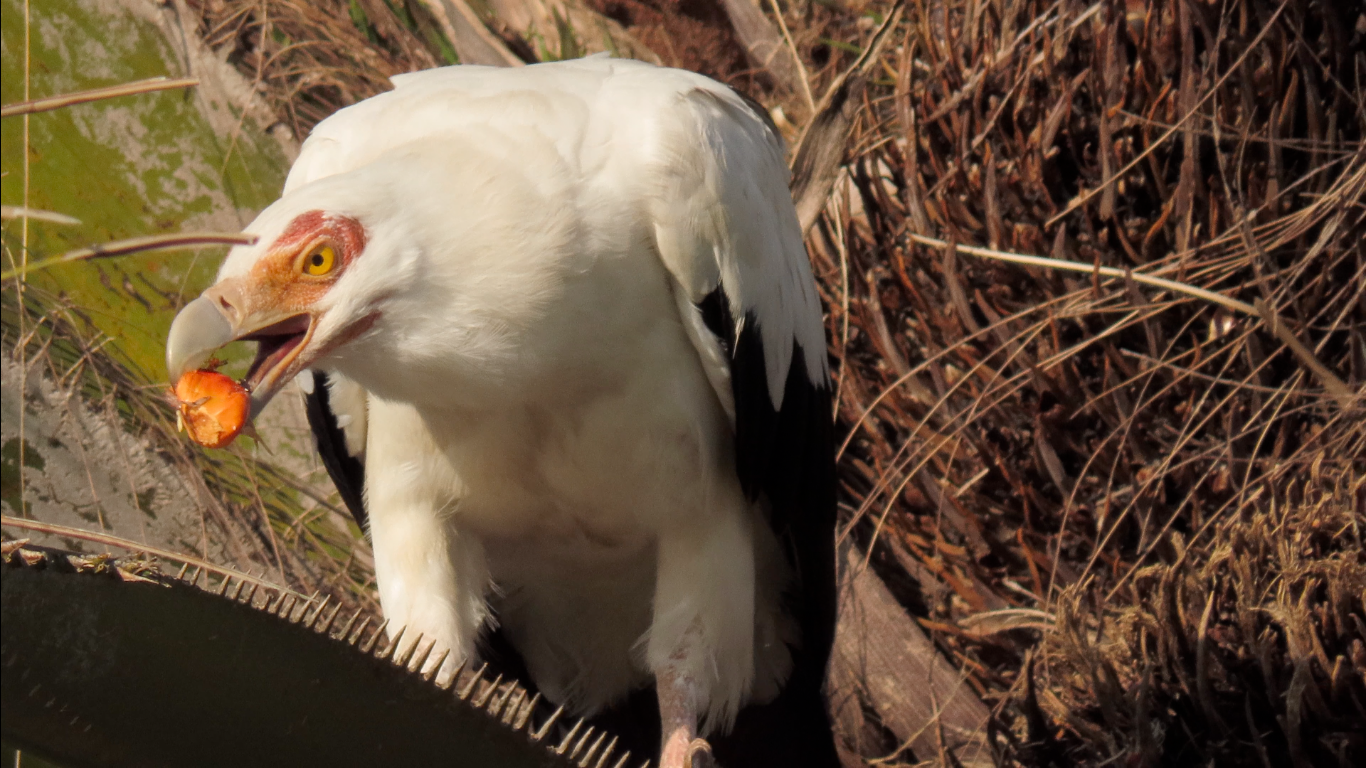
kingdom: Animalia
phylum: Chordata
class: Aves
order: Accipitriformes
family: Accipitridae
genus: Gypohierax
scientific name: Gypohierax angolensis
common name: Palm-nut vulture
